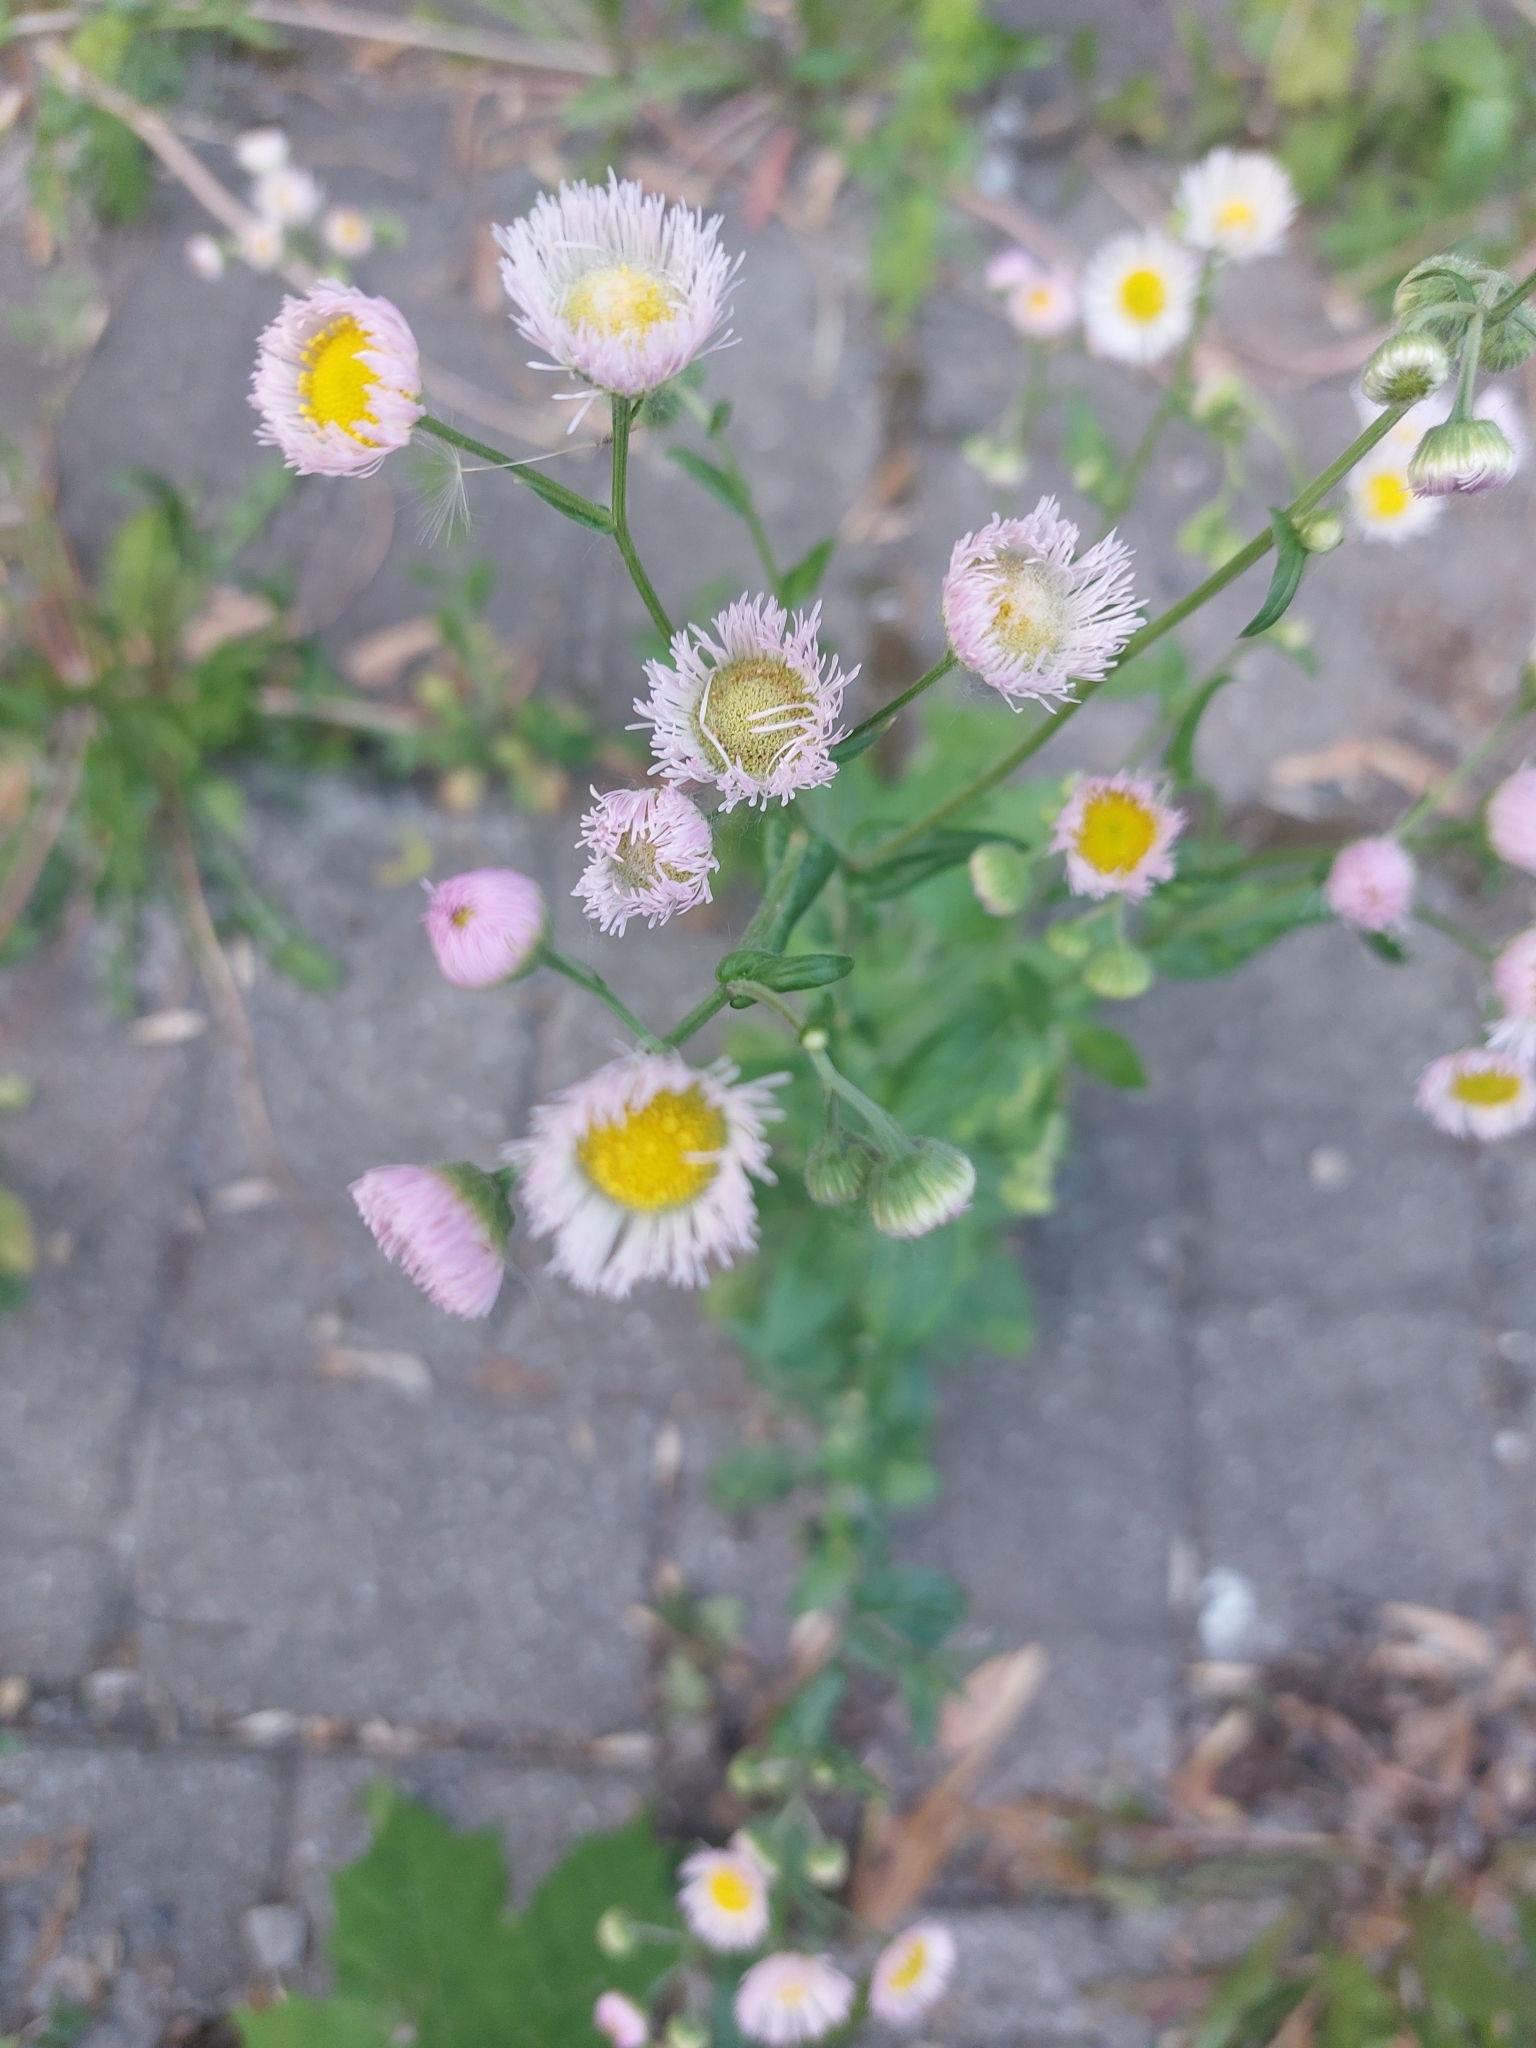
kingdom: Plantae
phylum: Tracheophyta
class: Magnoliopsida
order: Asterales
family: Asteraceae
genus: Erigeron
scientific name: Erigeron philadelphicus
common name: Robin's-plantain
